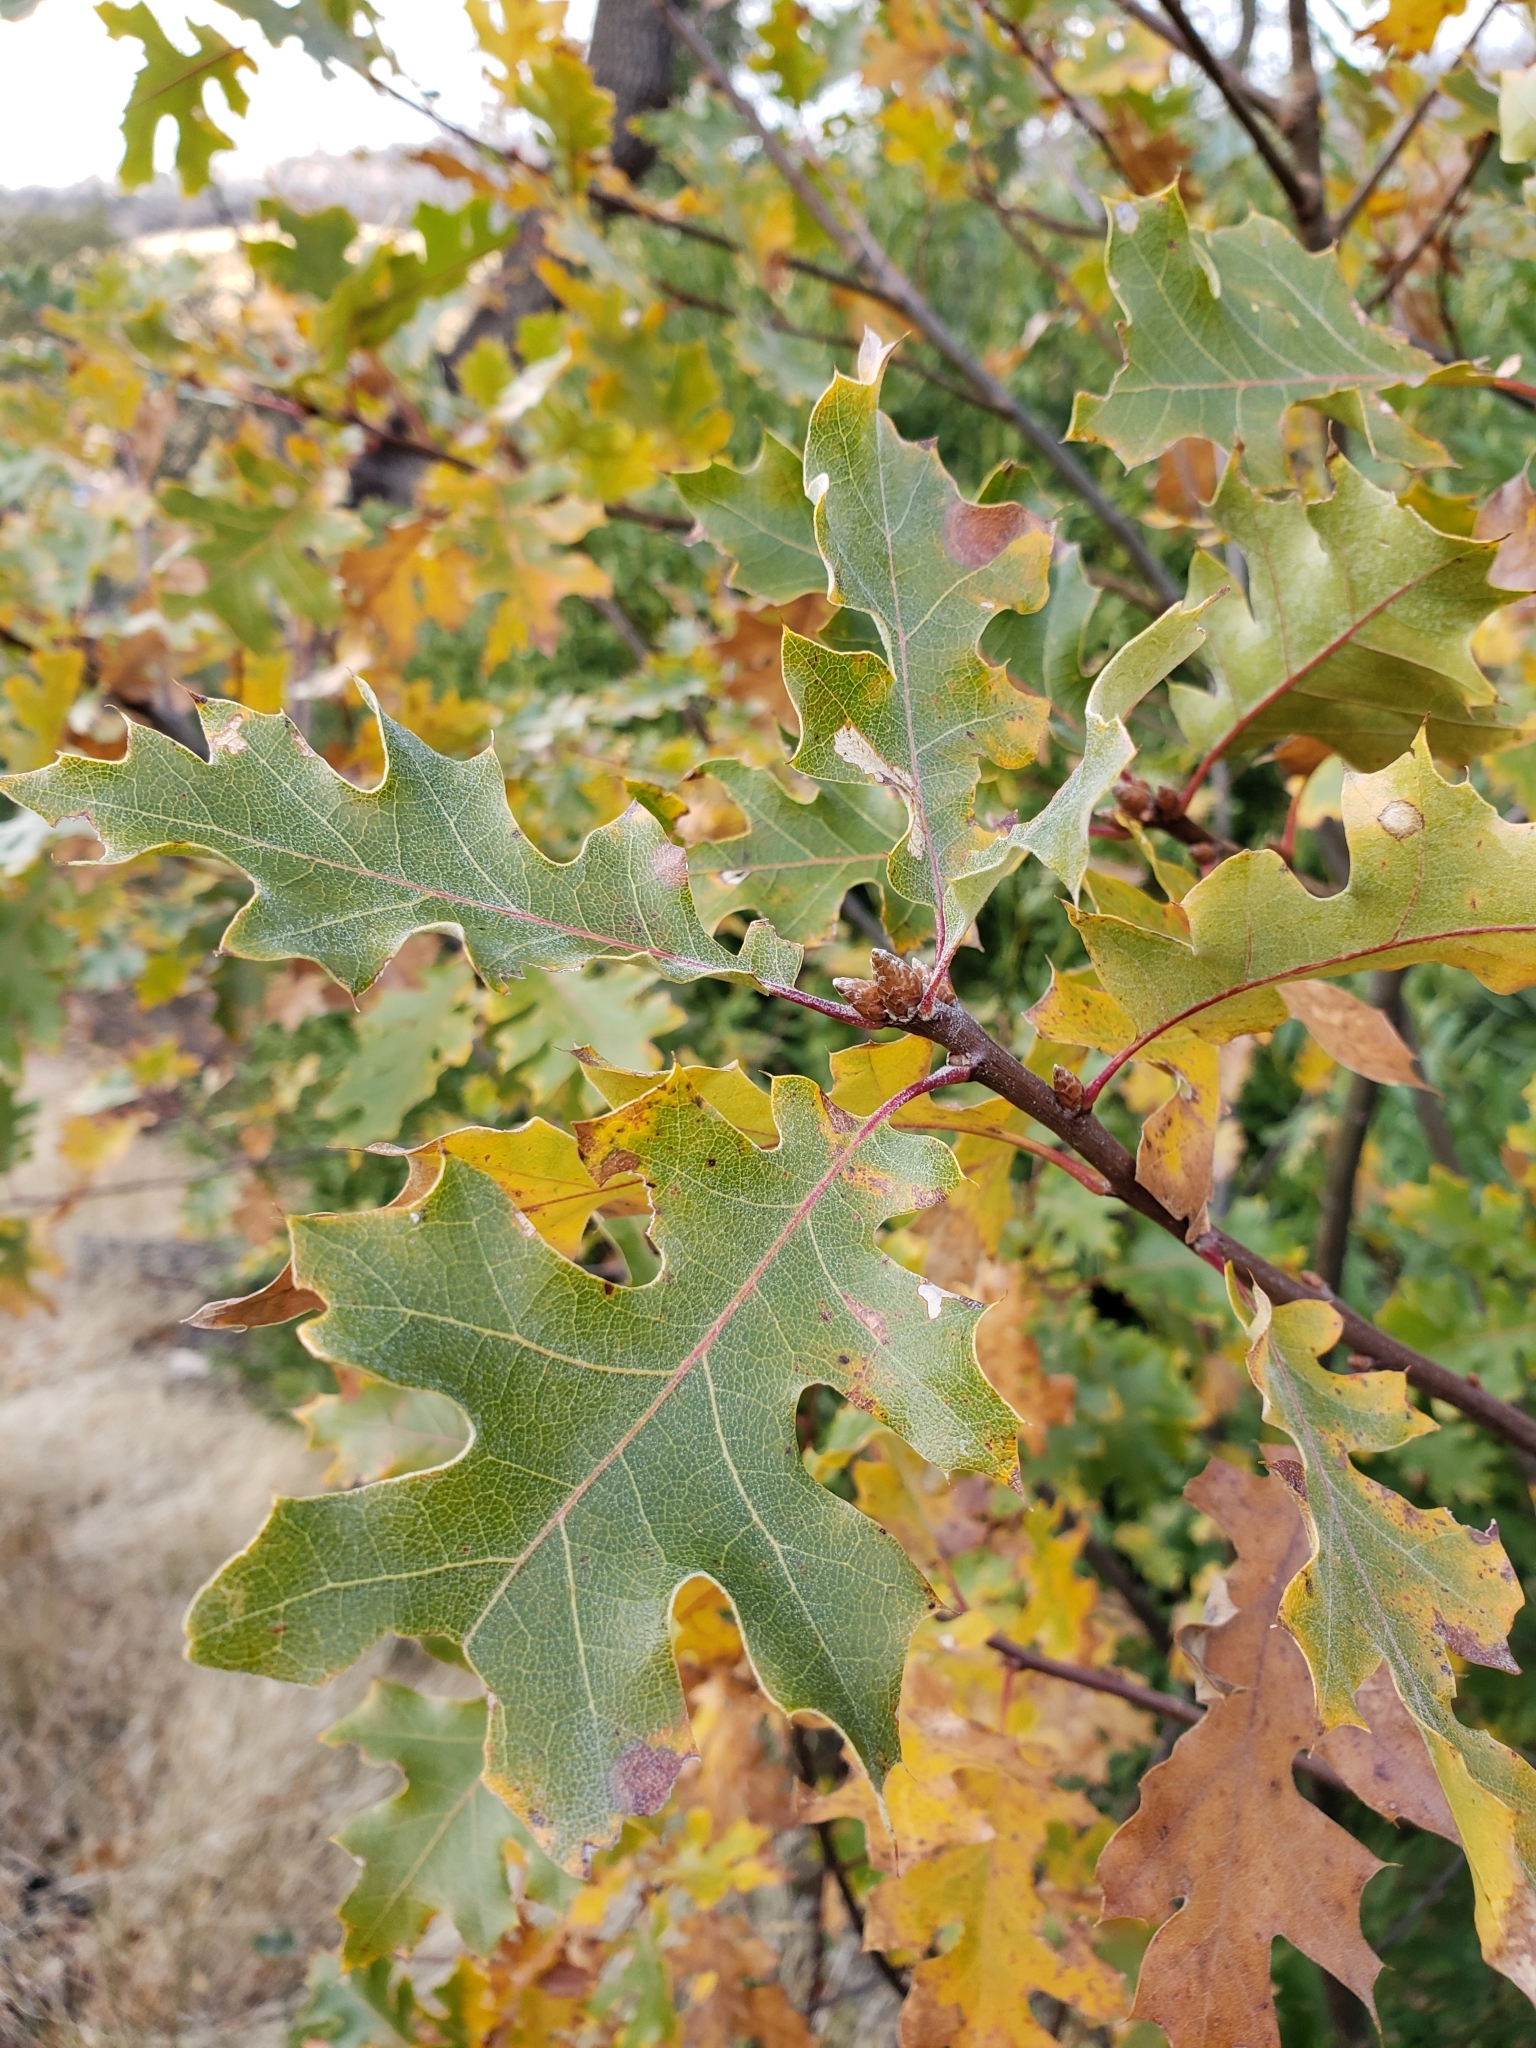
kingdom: Plantae
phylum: Tracheophyta
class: Magnoliopsida
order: Fagales
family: Fagaceae
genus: Quercus
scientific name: Quercus kelloggii
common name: California black oak
